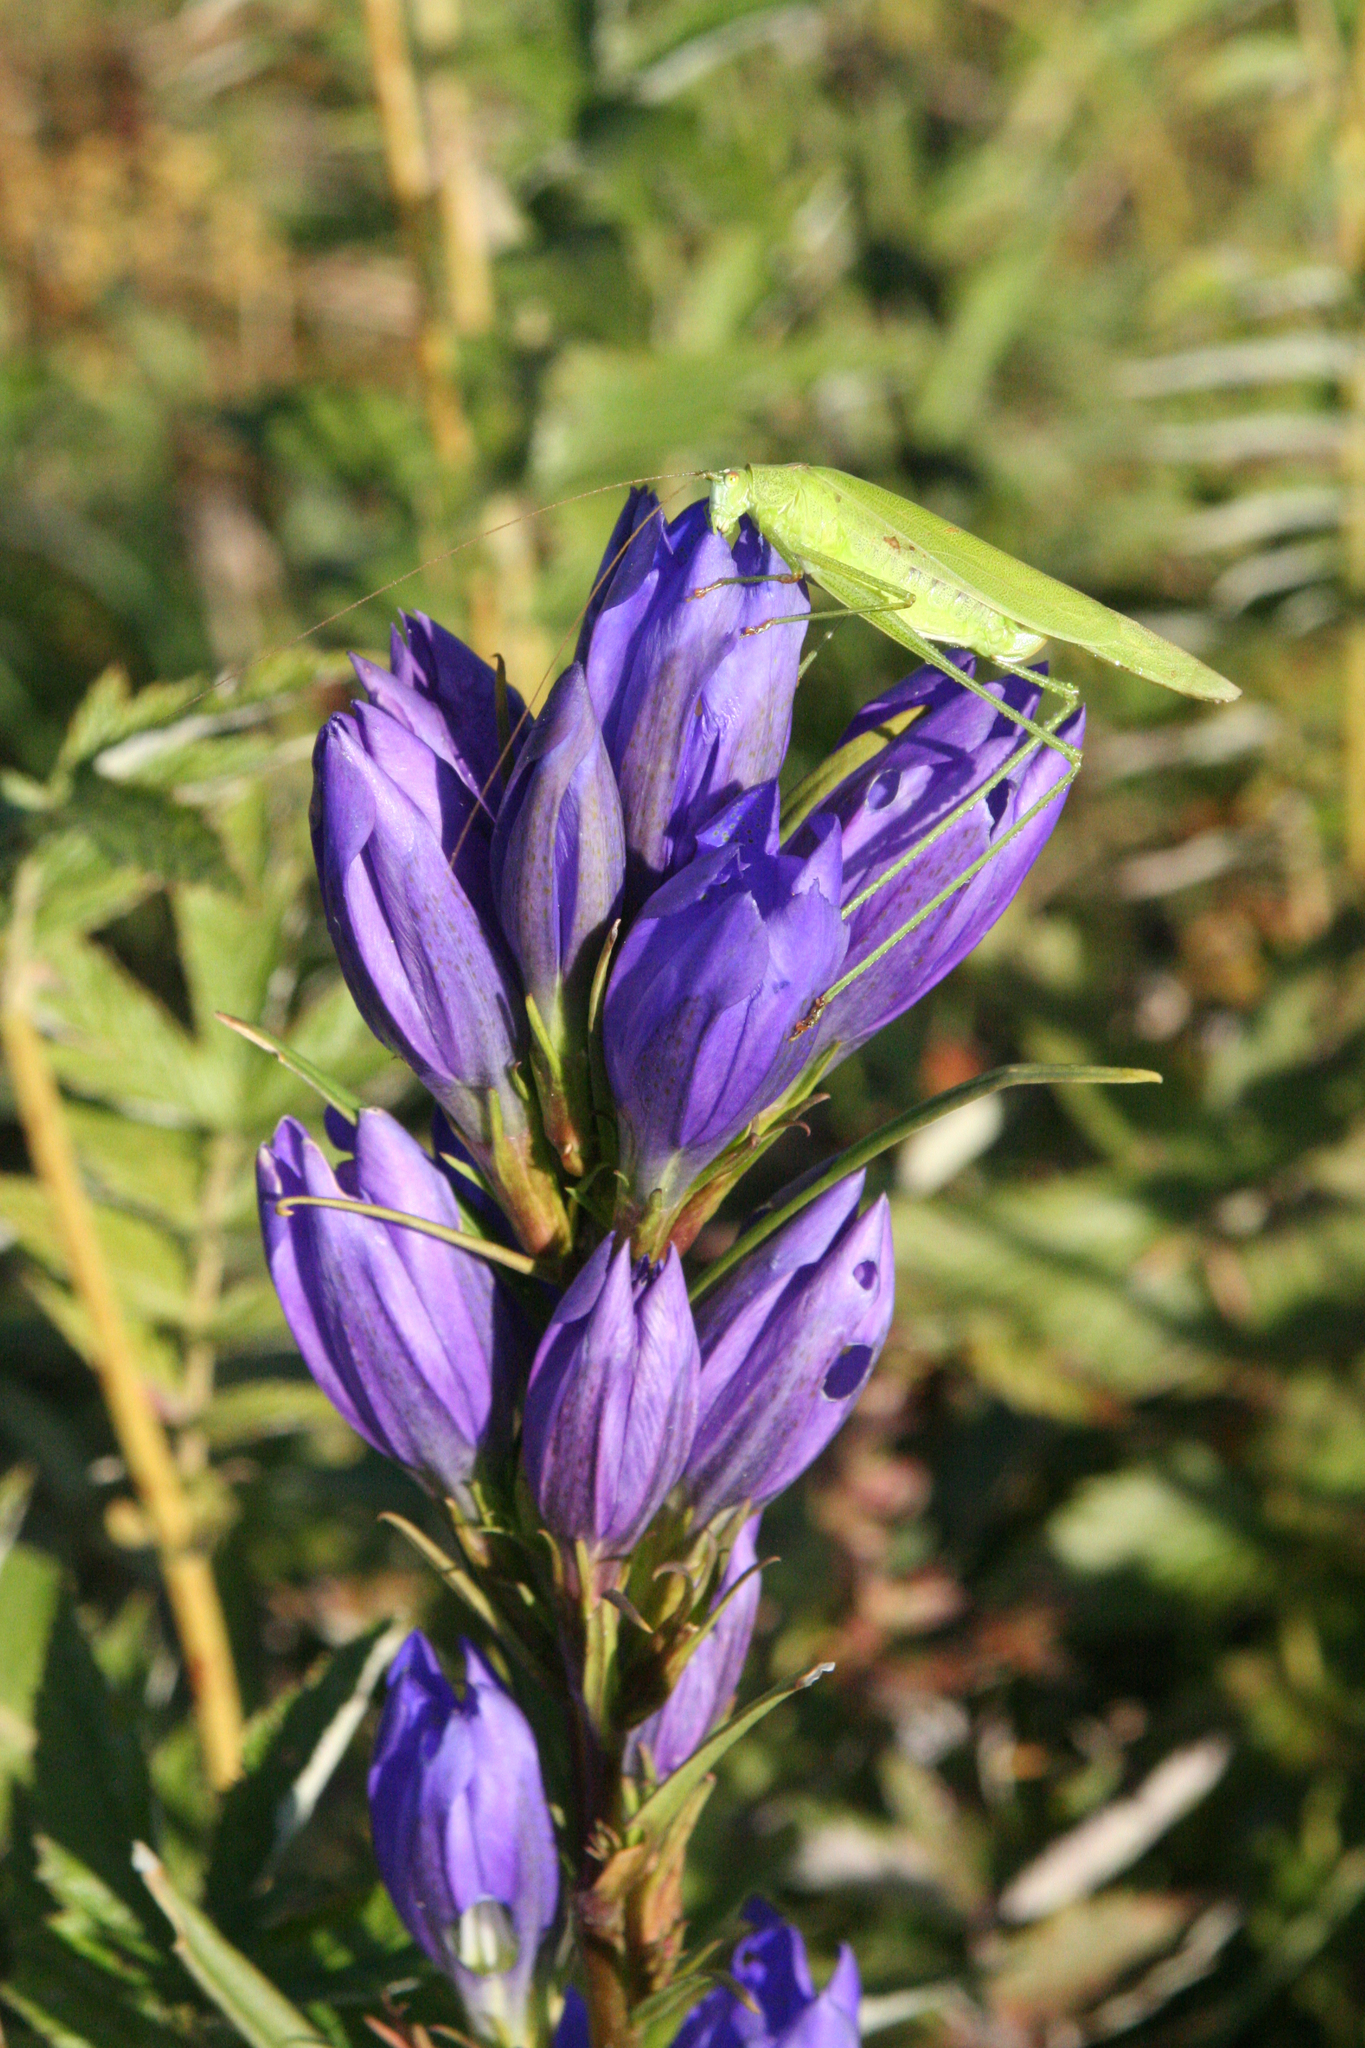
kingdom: Plantae
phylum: Tracheophyta
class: Magnoliopsida
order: Gentianales
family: Gentianaceae
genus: Gentiana
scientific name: Gentiana pneumonanthe
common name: Marsh gentian
